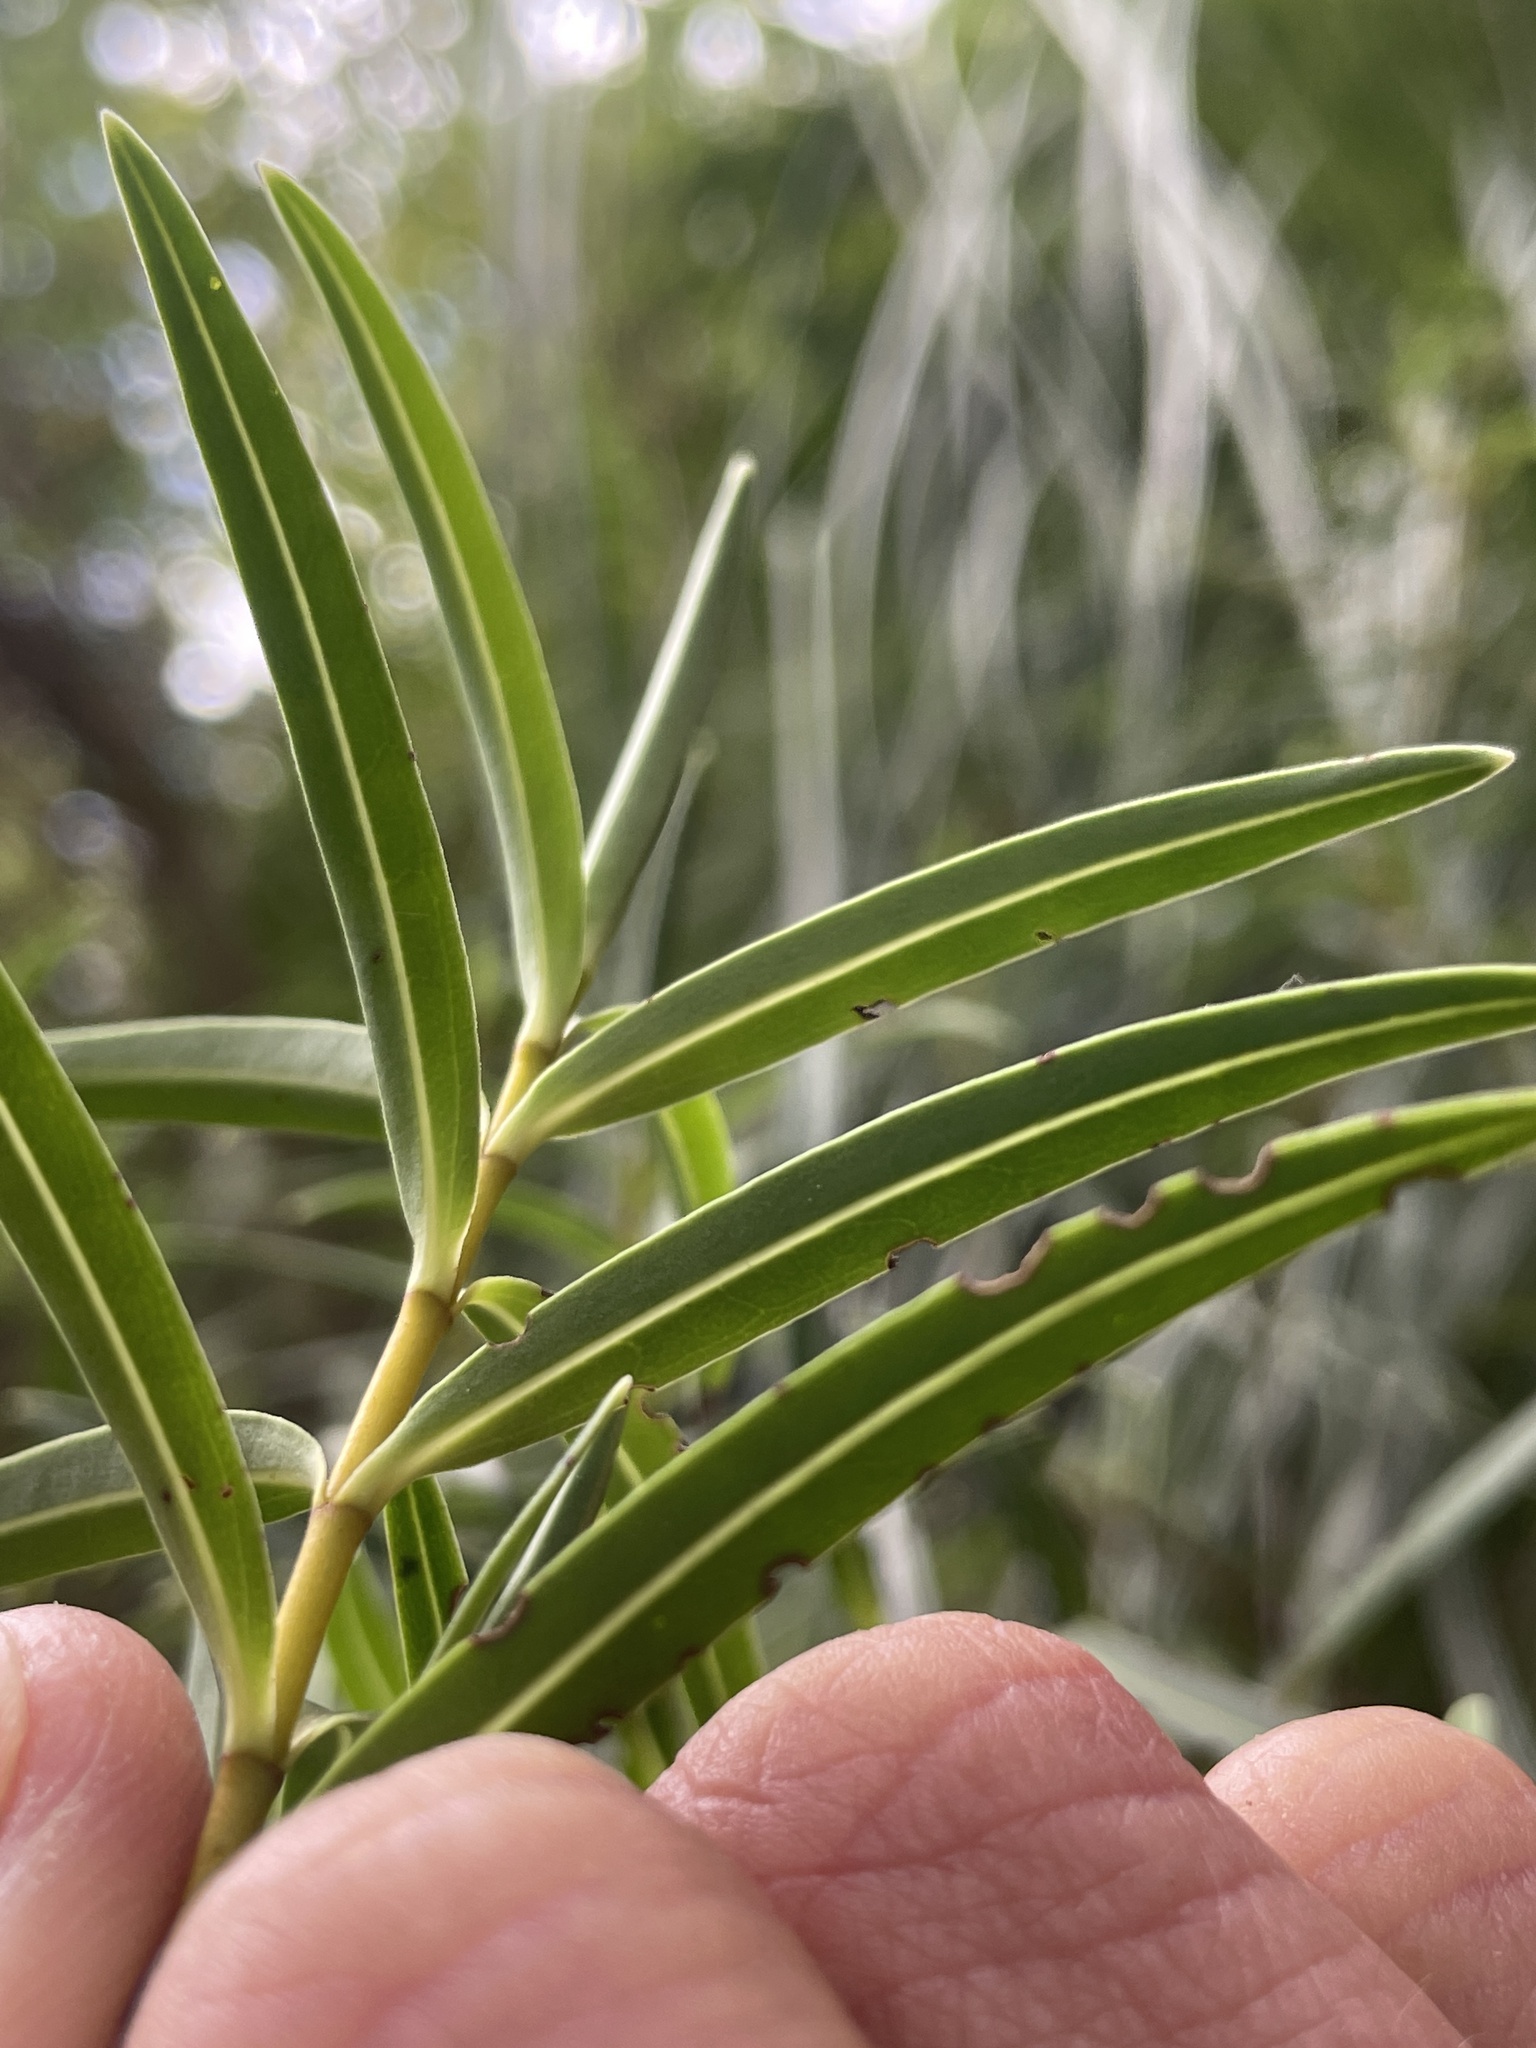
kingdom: Plantae
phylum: Tracheophyta
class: Magnoliopsida
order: Lamiales
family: Plantaginaceae
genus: Veronica
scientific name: Veronica parviflora
